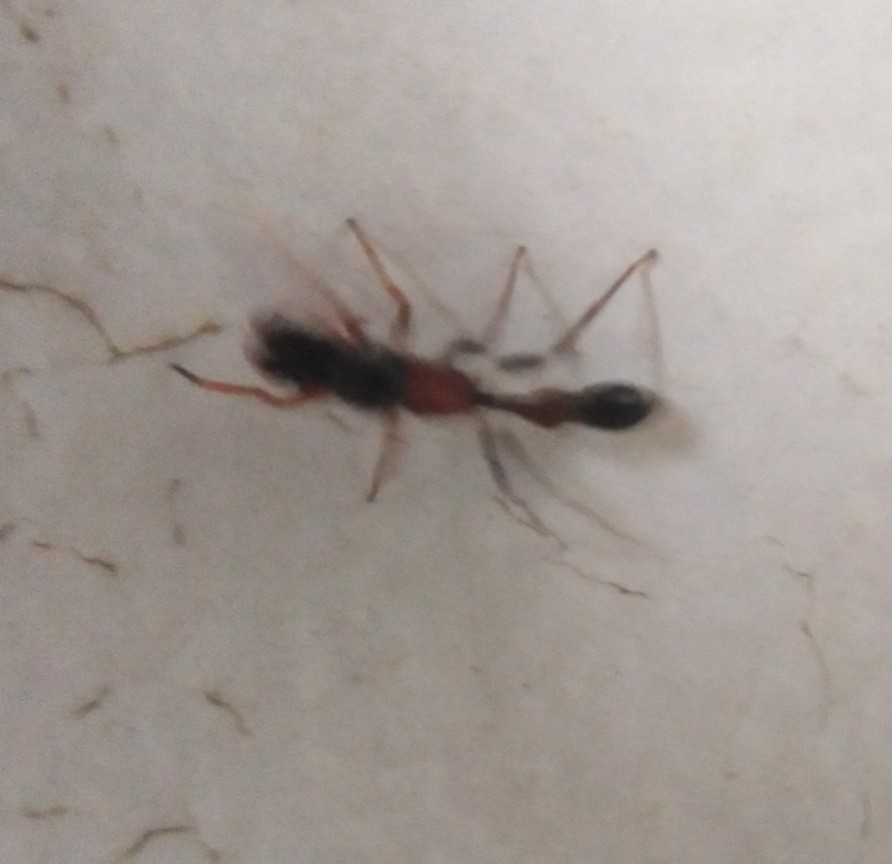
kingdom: Animalia
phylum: Arthropoda
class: Arachnida
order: Araneae
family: Salticidae
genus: Myrmarachne
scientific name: Myrmarachne melanocephala
